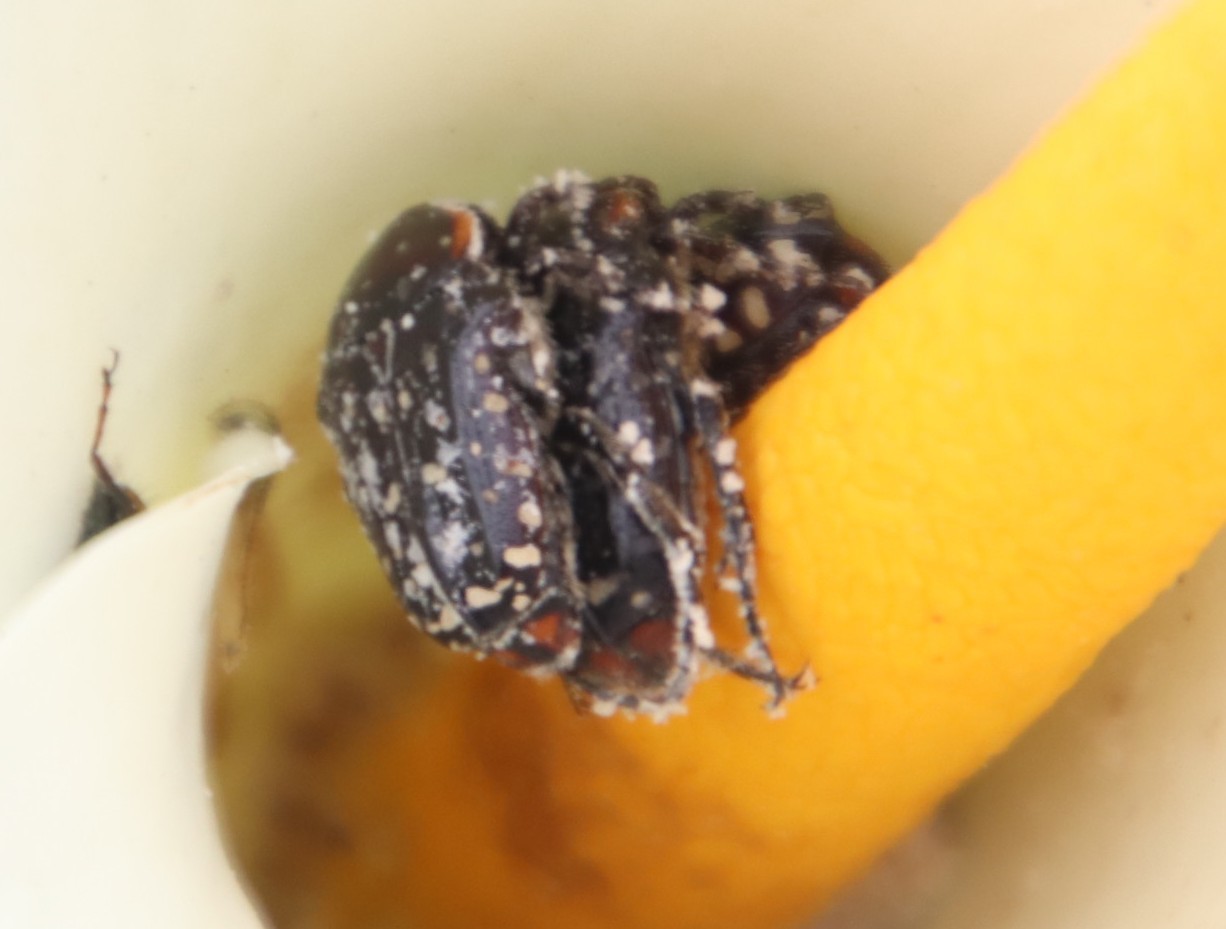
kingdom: Animalia
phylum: Arthropoda
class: Insecta
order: Coleoptera
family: Scarabaeidae
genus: Oxythyrea
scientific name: Oxythyrea
